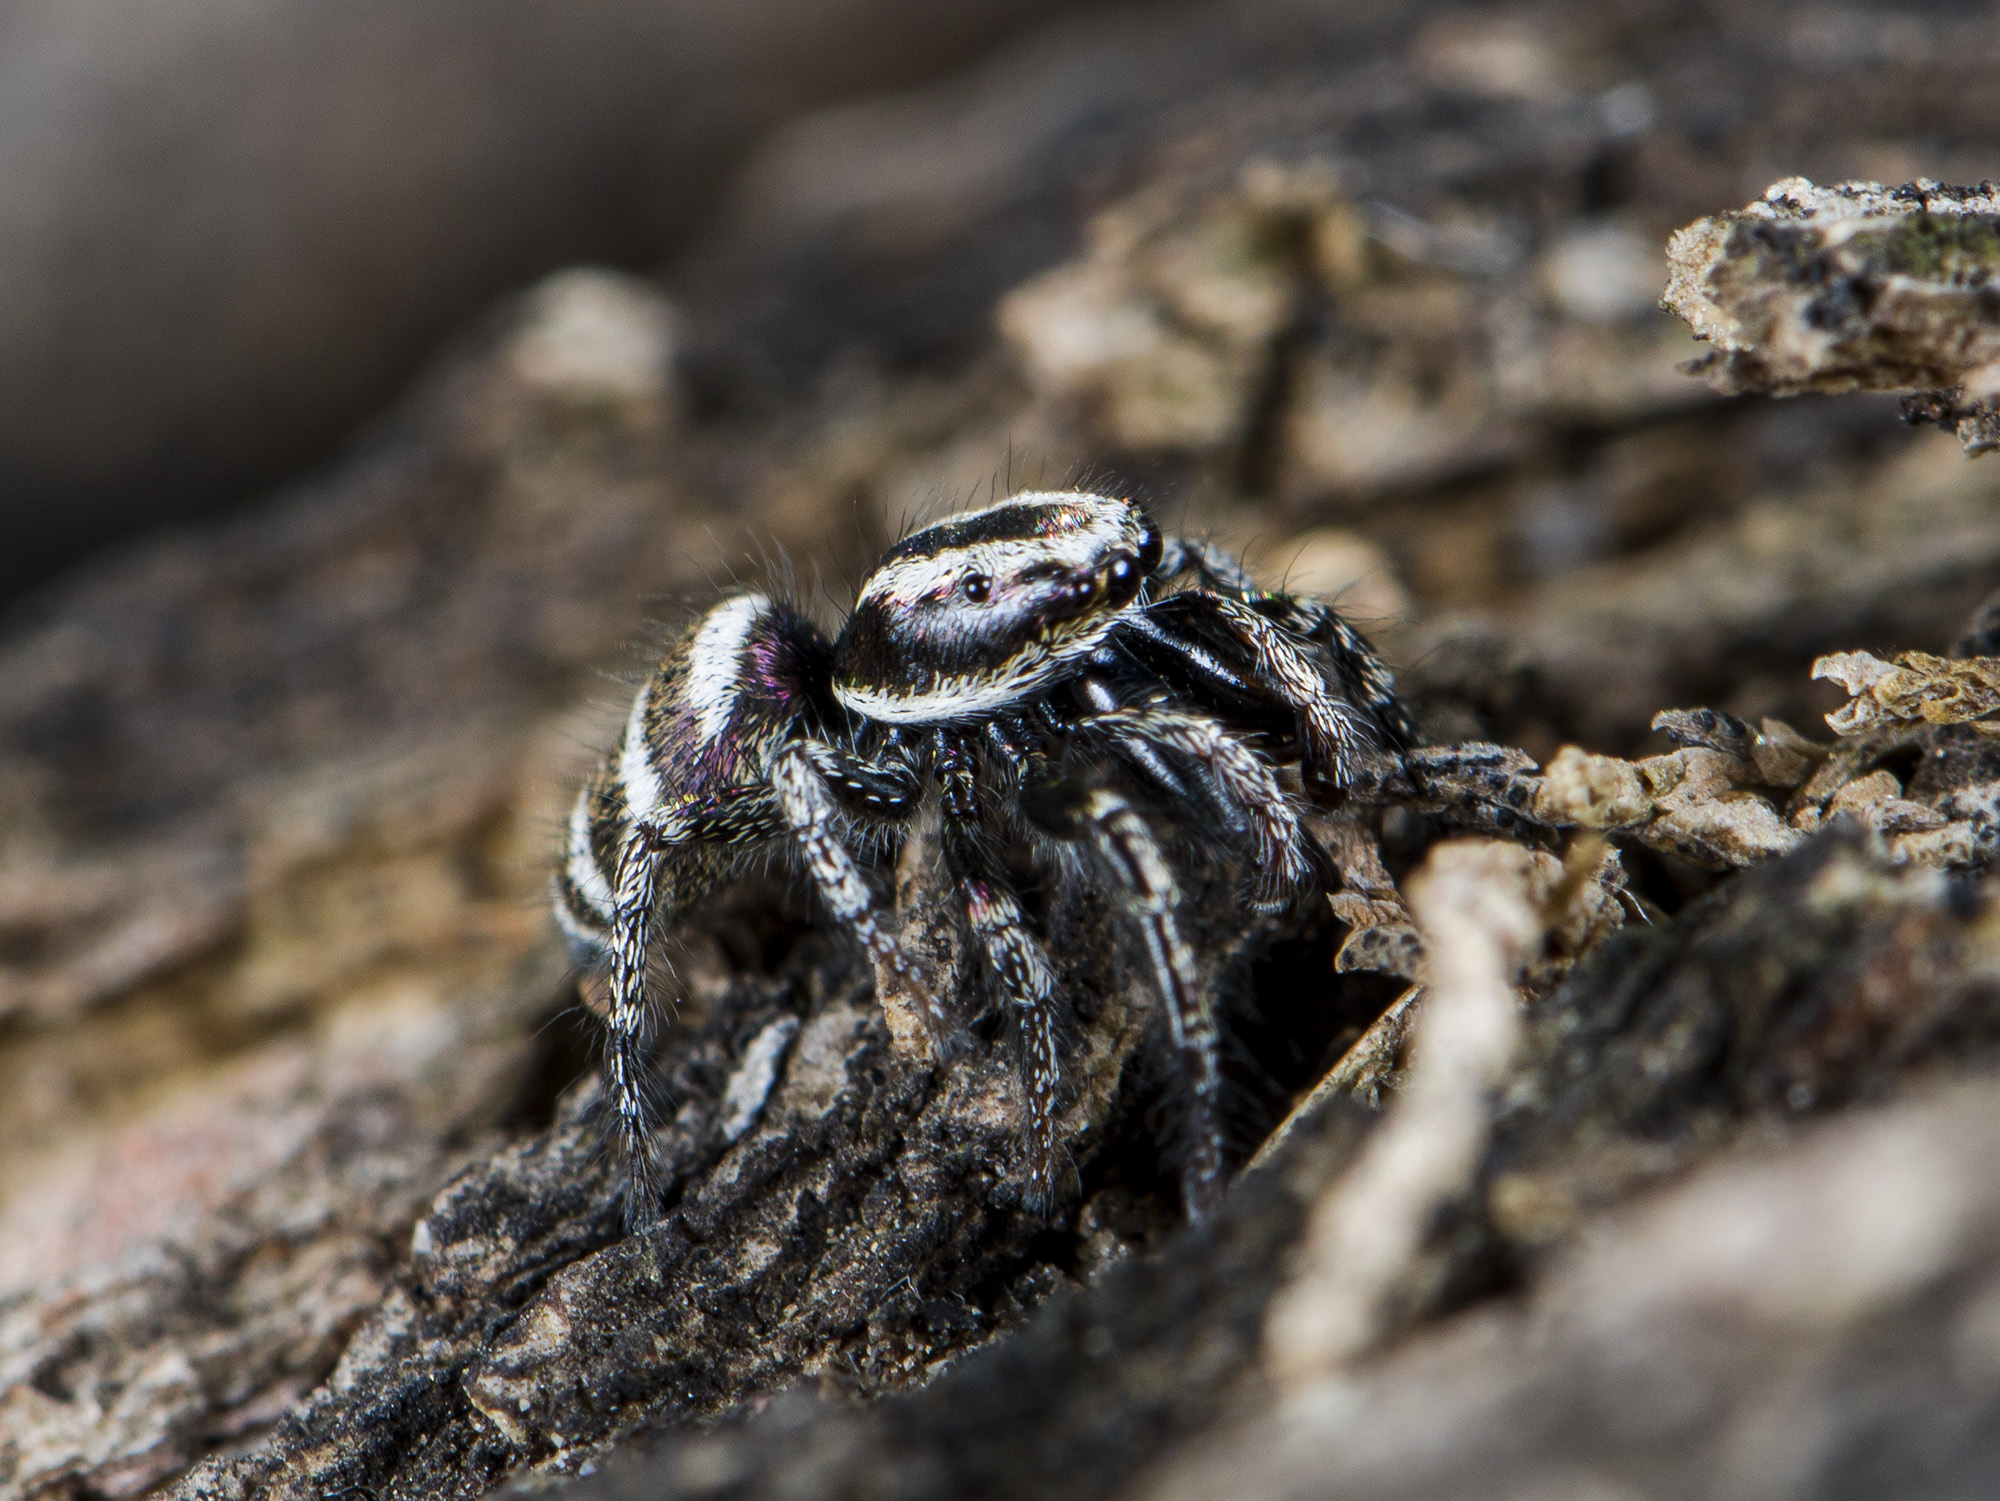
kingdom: Animalia
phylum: Arthropoda
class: Arachnida
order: Araneae
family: Salticidae
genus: Salticus
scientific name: Salticus tricinctus
